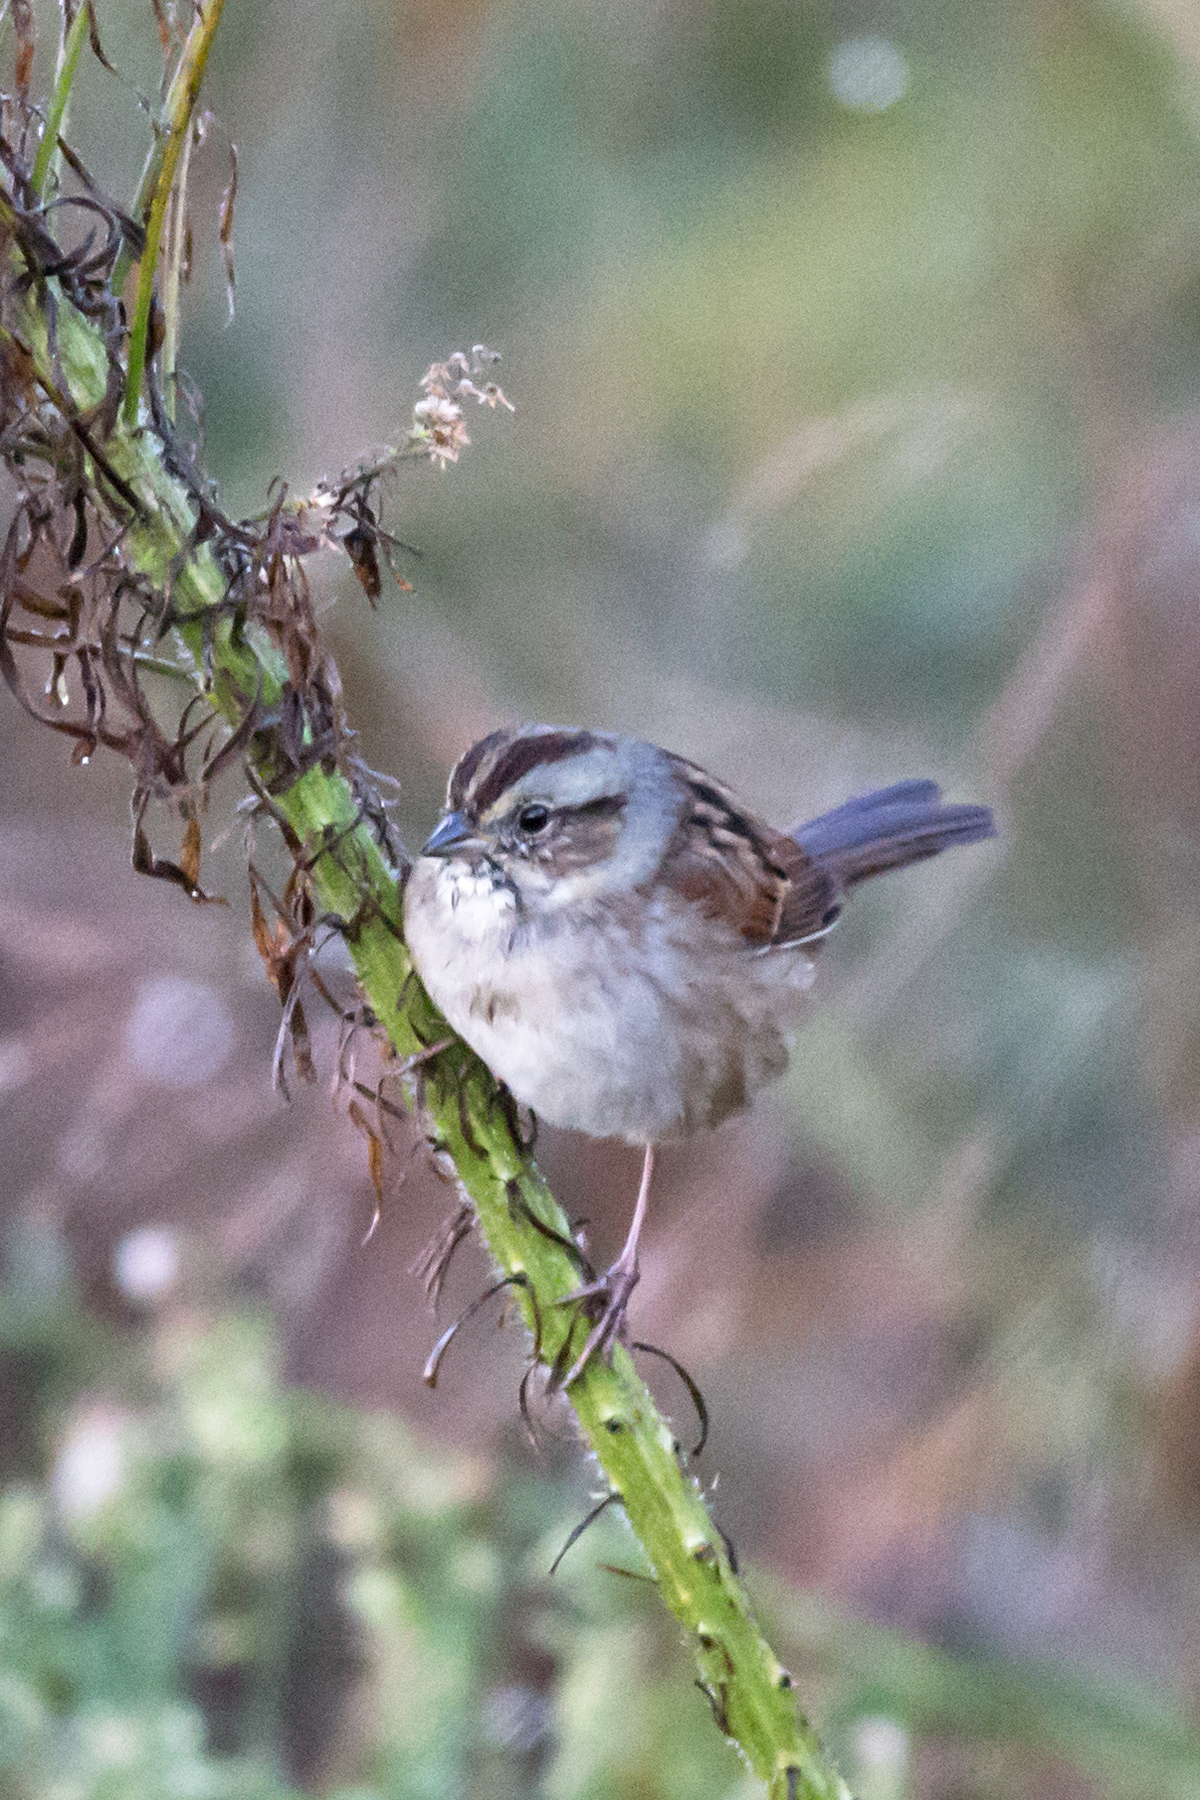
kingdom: Animalia
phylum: Chordata
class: Aves
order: Passeriformes
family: Passerellidae
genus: Melospiza
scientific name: Melospiza georgiana
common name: Swamp sparrow
